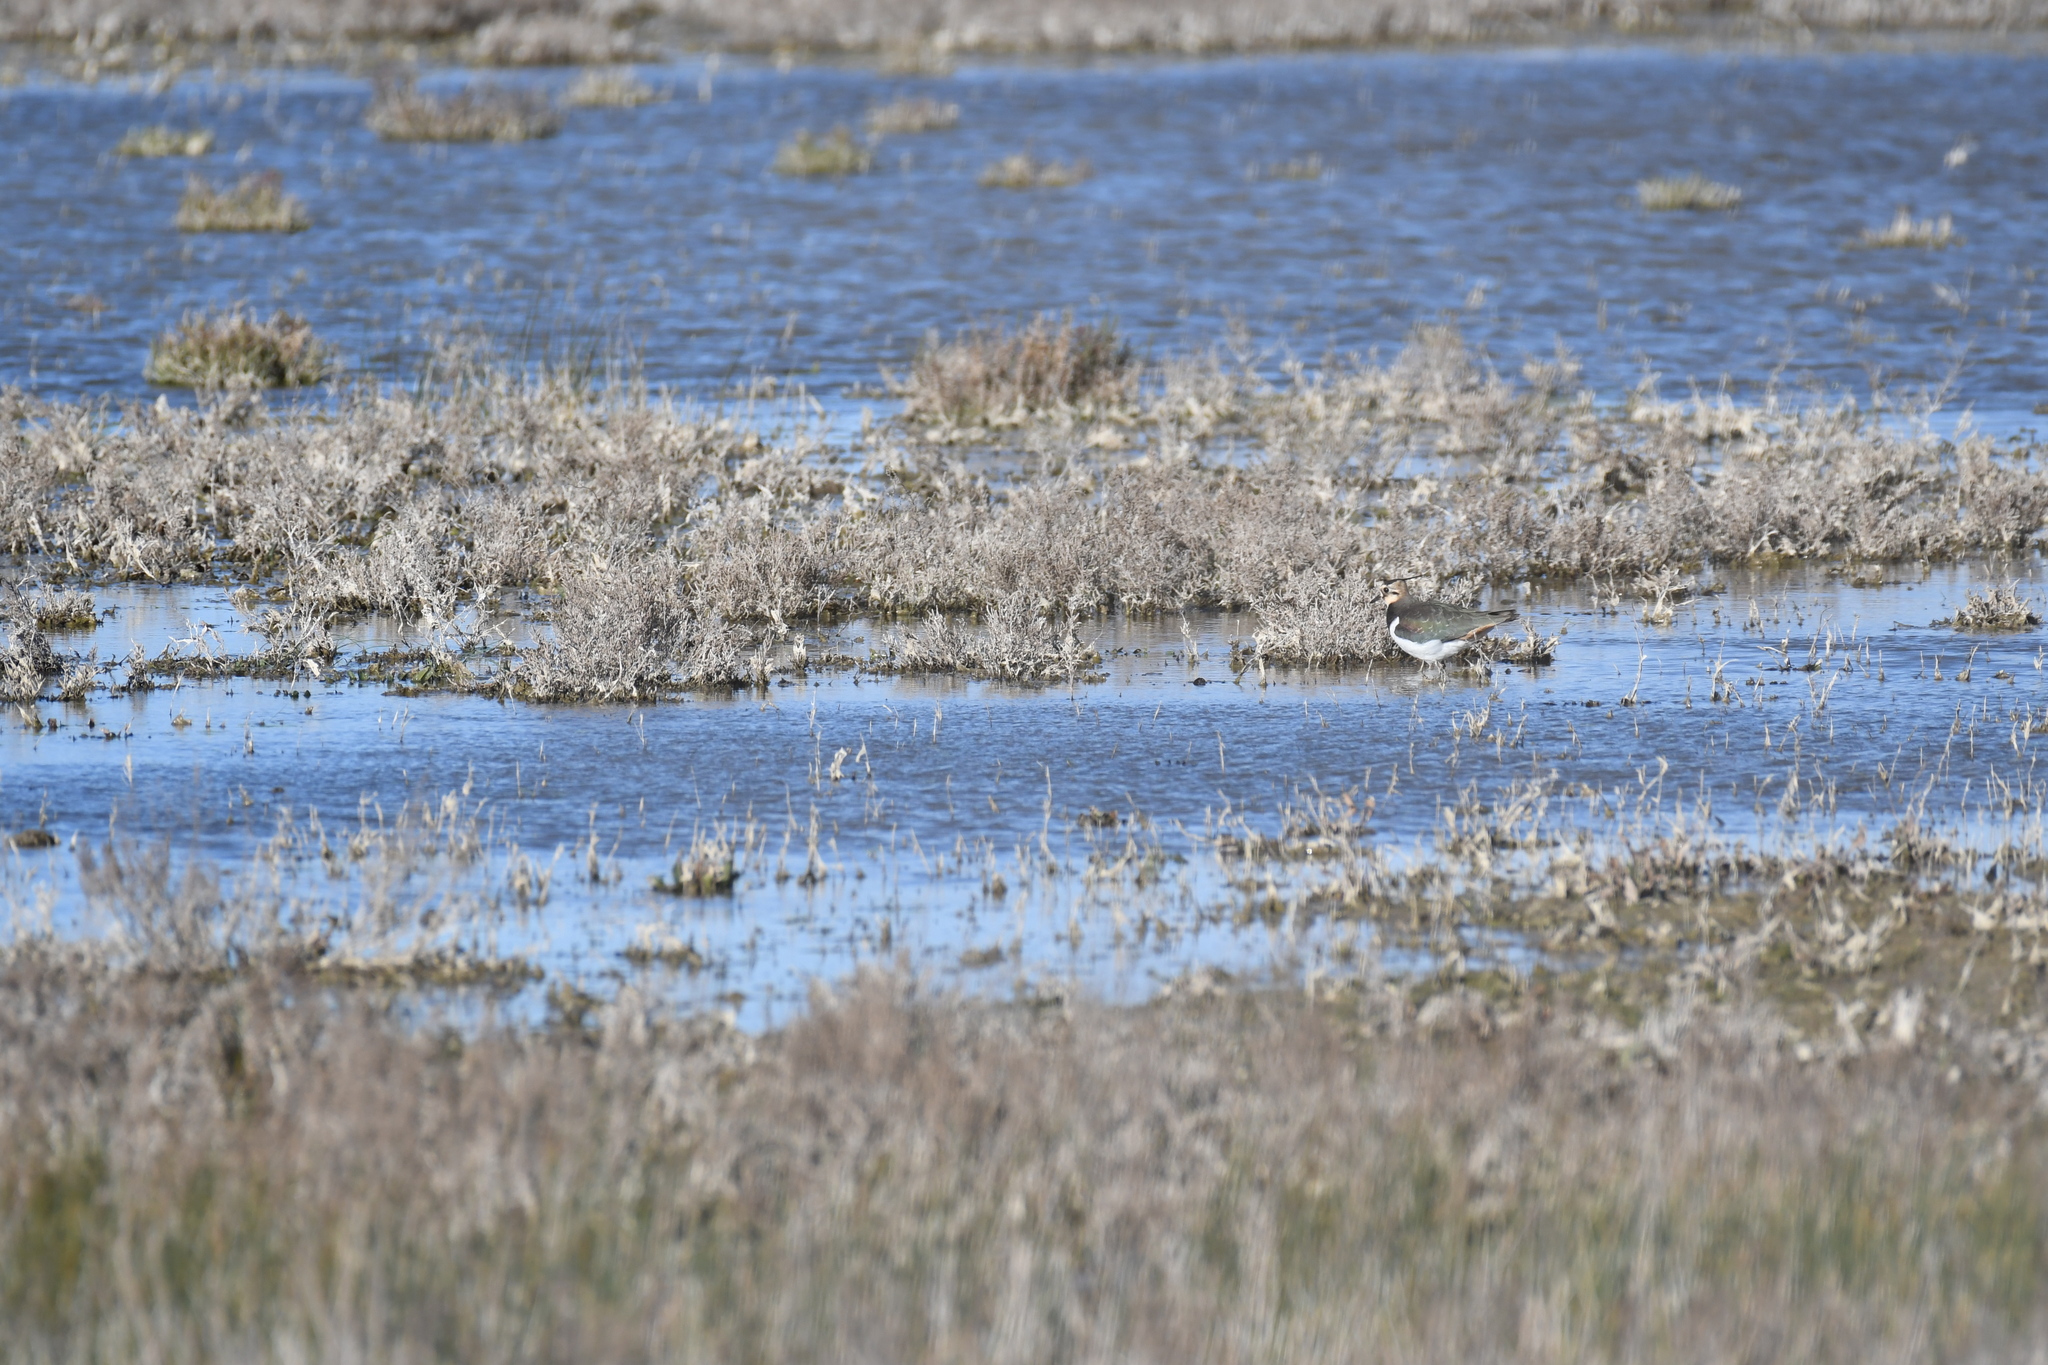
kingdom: Animalia
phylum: Chordata
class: Aves
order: Charadriiformes
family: Charadriidae
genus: Vanellus
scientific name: Vanellus vanellus
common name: Northern lapwing
